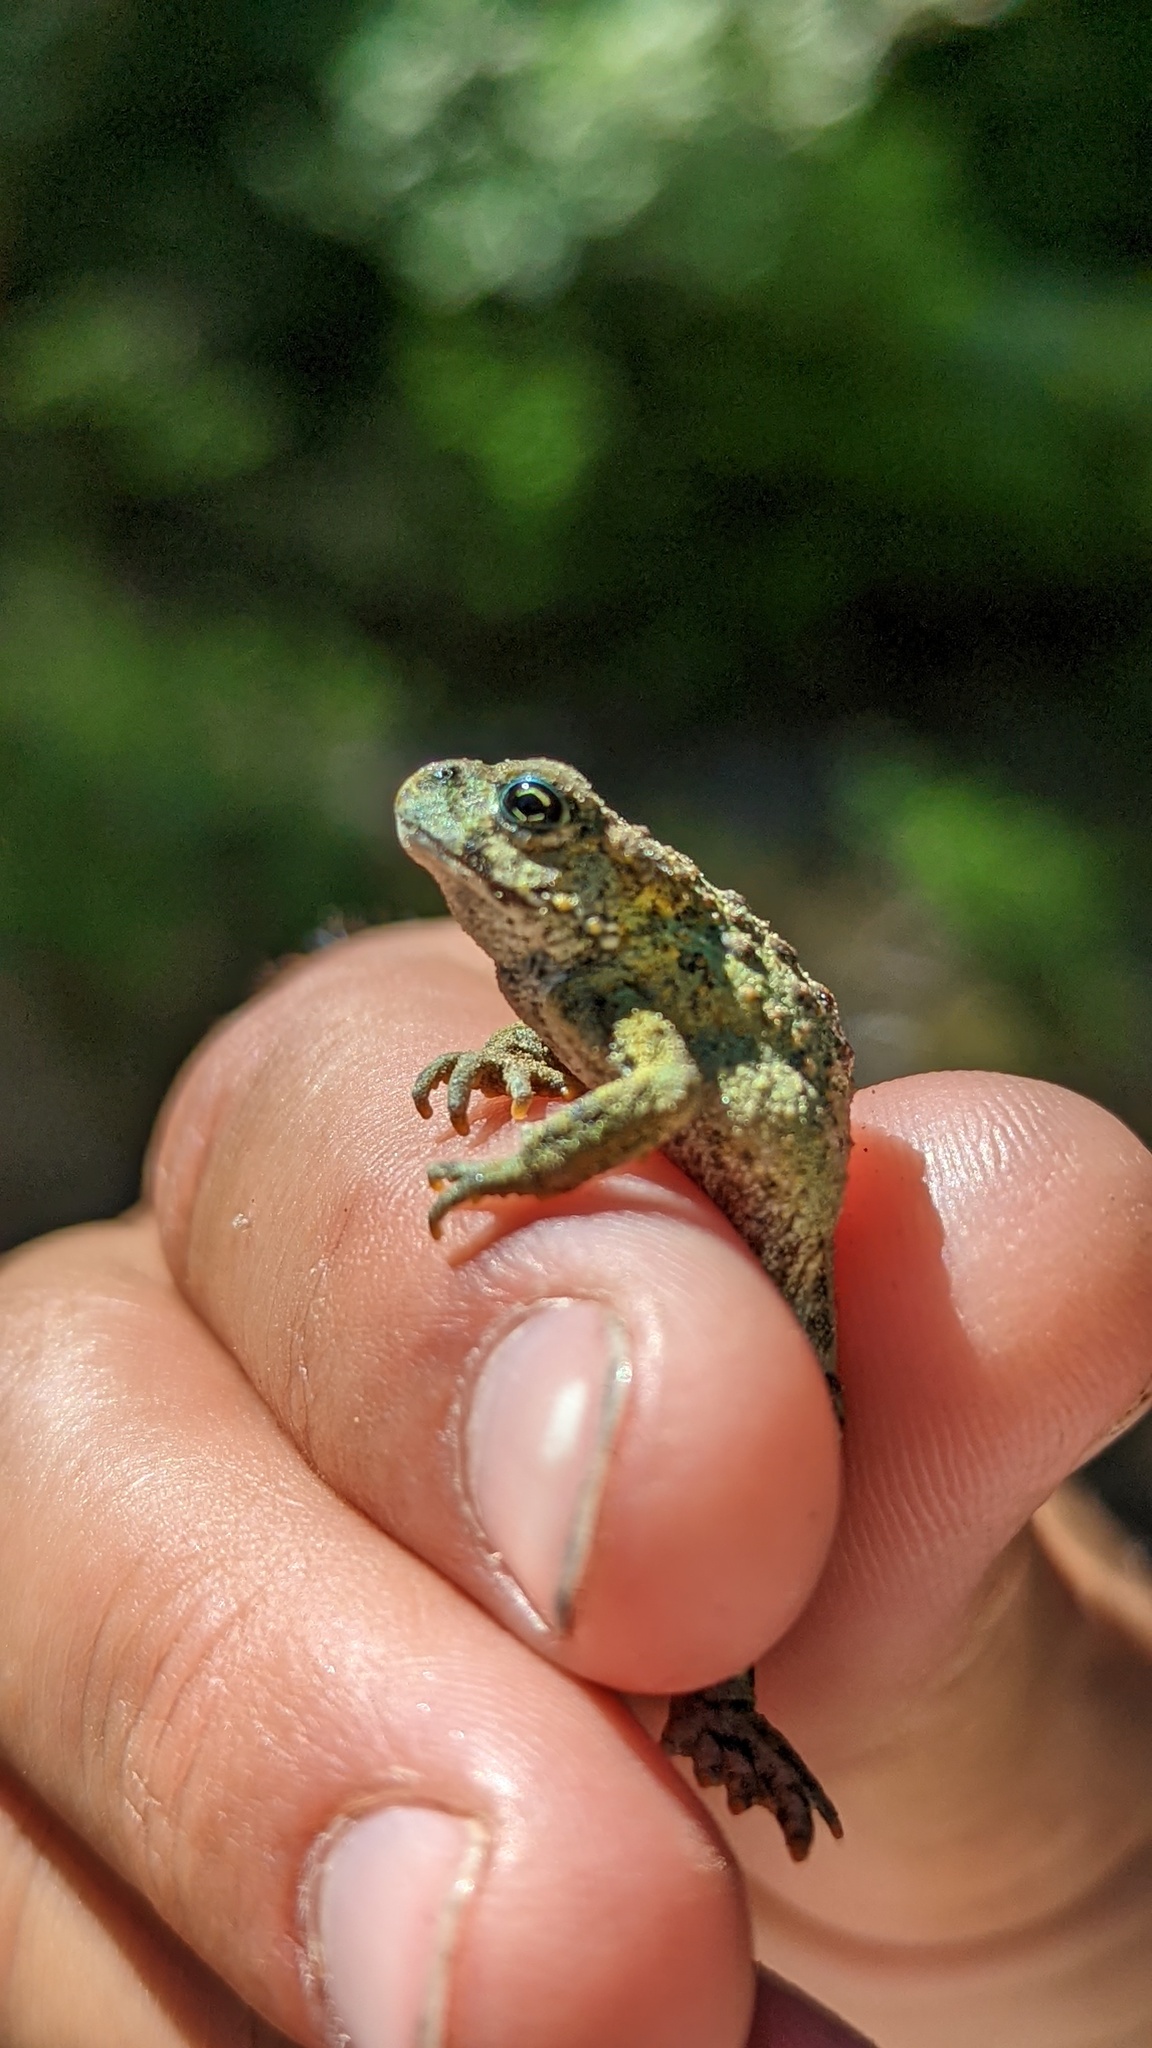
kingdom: Animalia
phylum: Chordata
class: Amphibia
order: Anura
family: Bufonidae
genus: Anaxyrus
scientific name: Anaxyrus boreas
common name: Western toad
